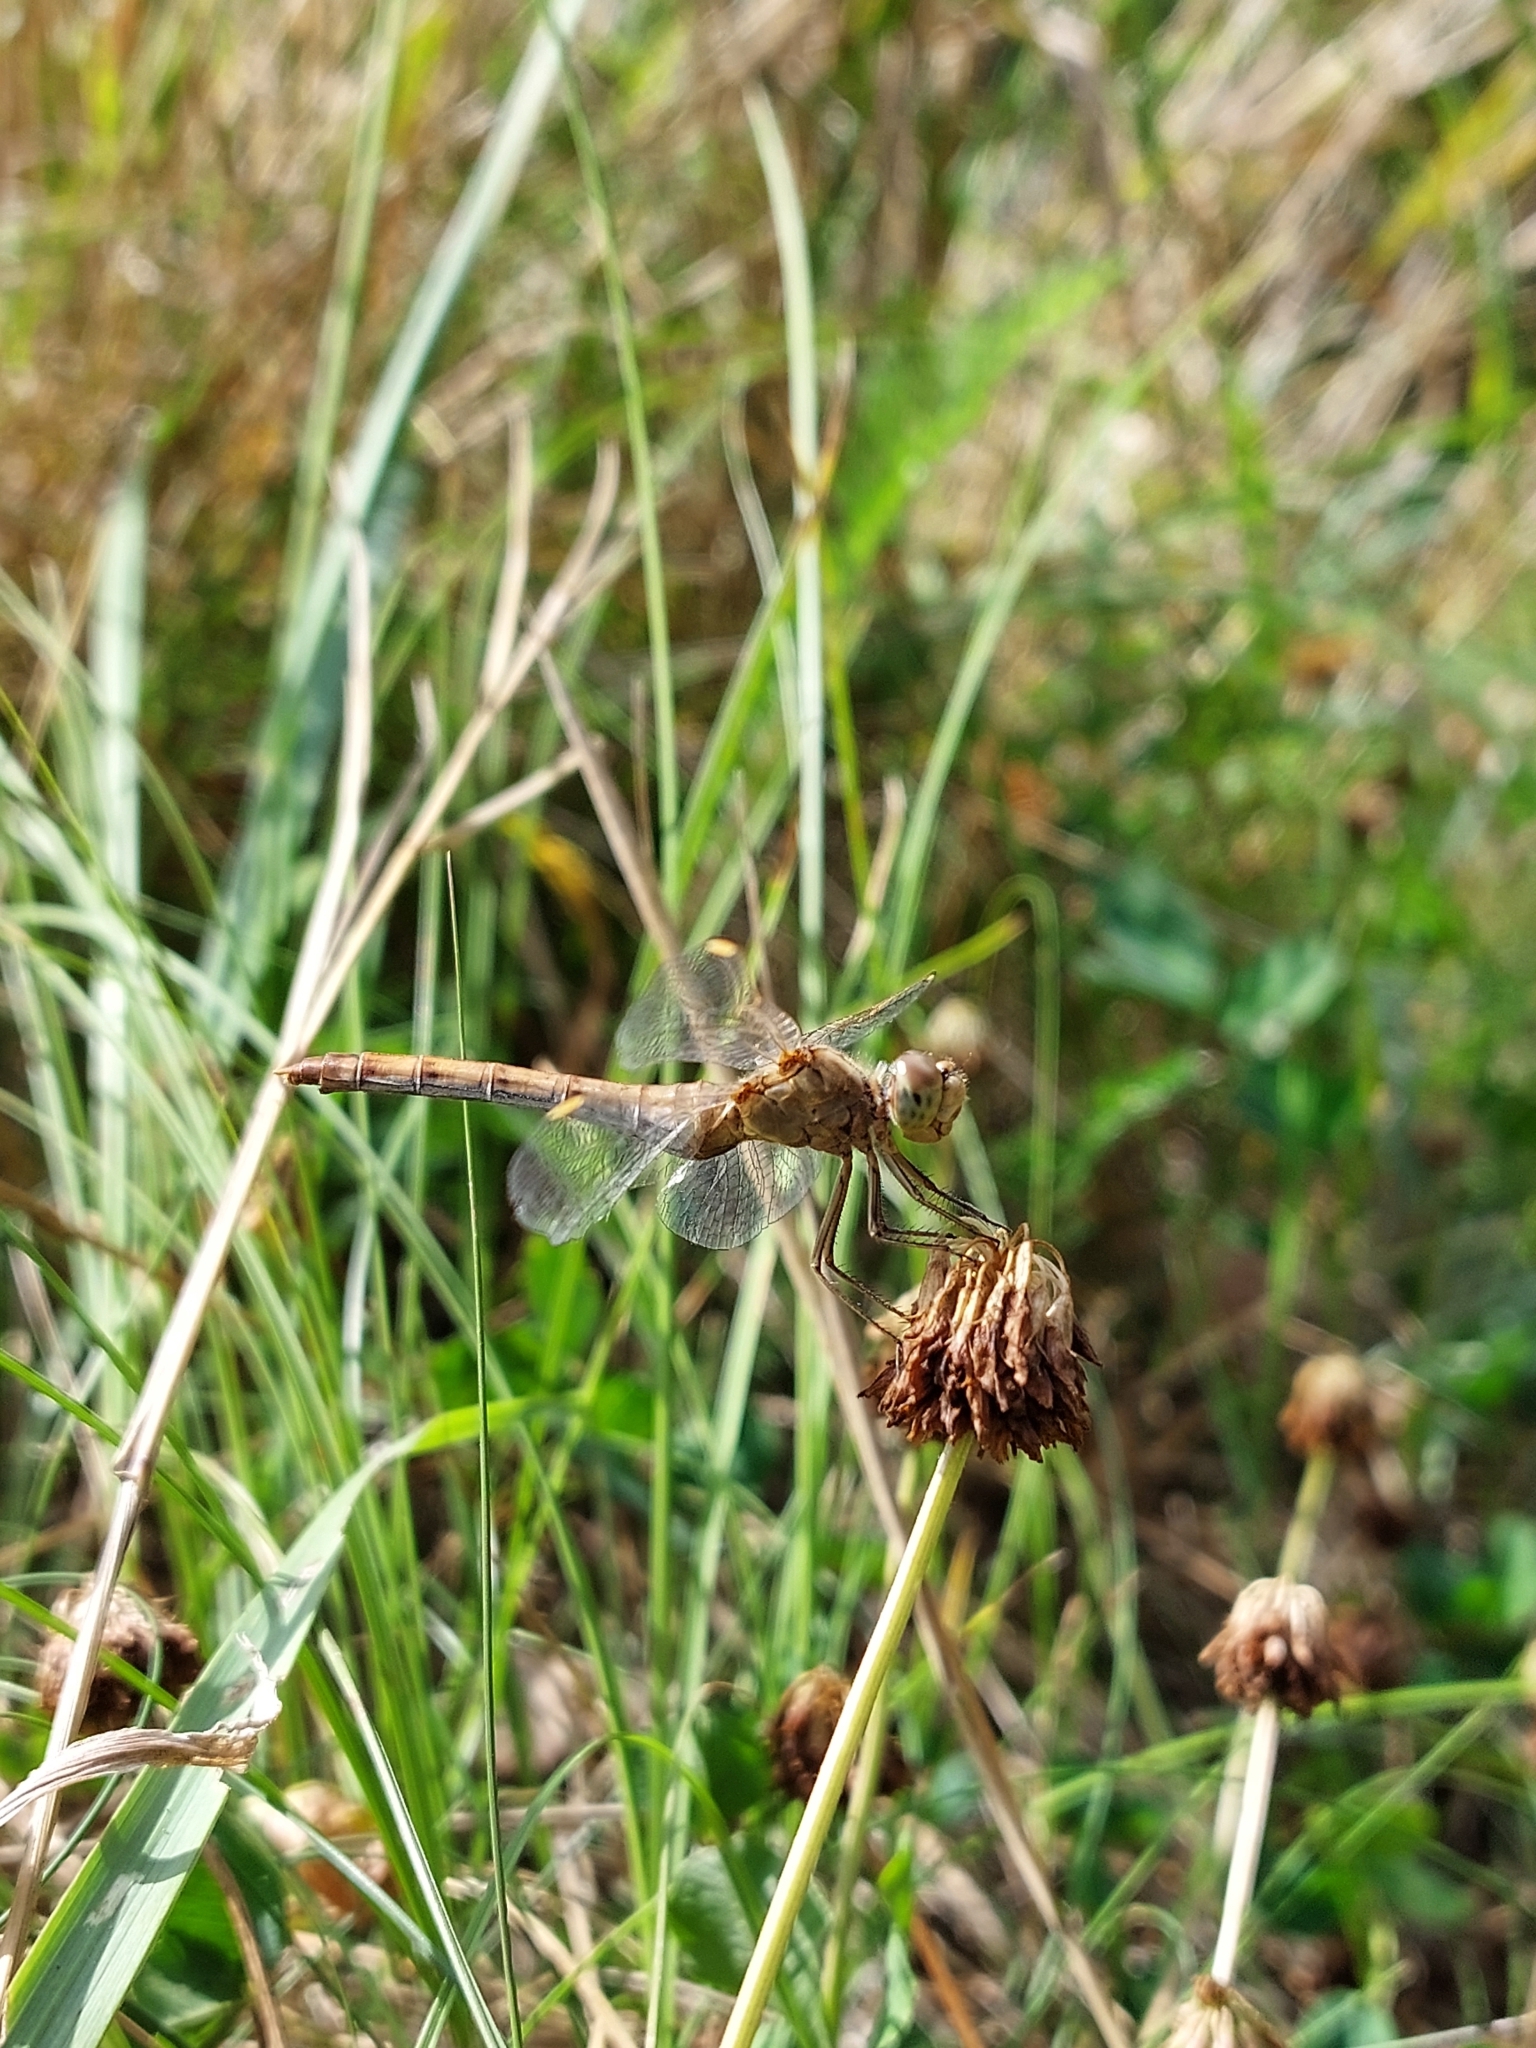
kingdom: Animalia
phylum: Arthropoda
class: Insecta
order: Odonata
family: Libellulidae
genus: Sympetrum
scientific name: Sympetrum meridionale
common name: Southern darter
